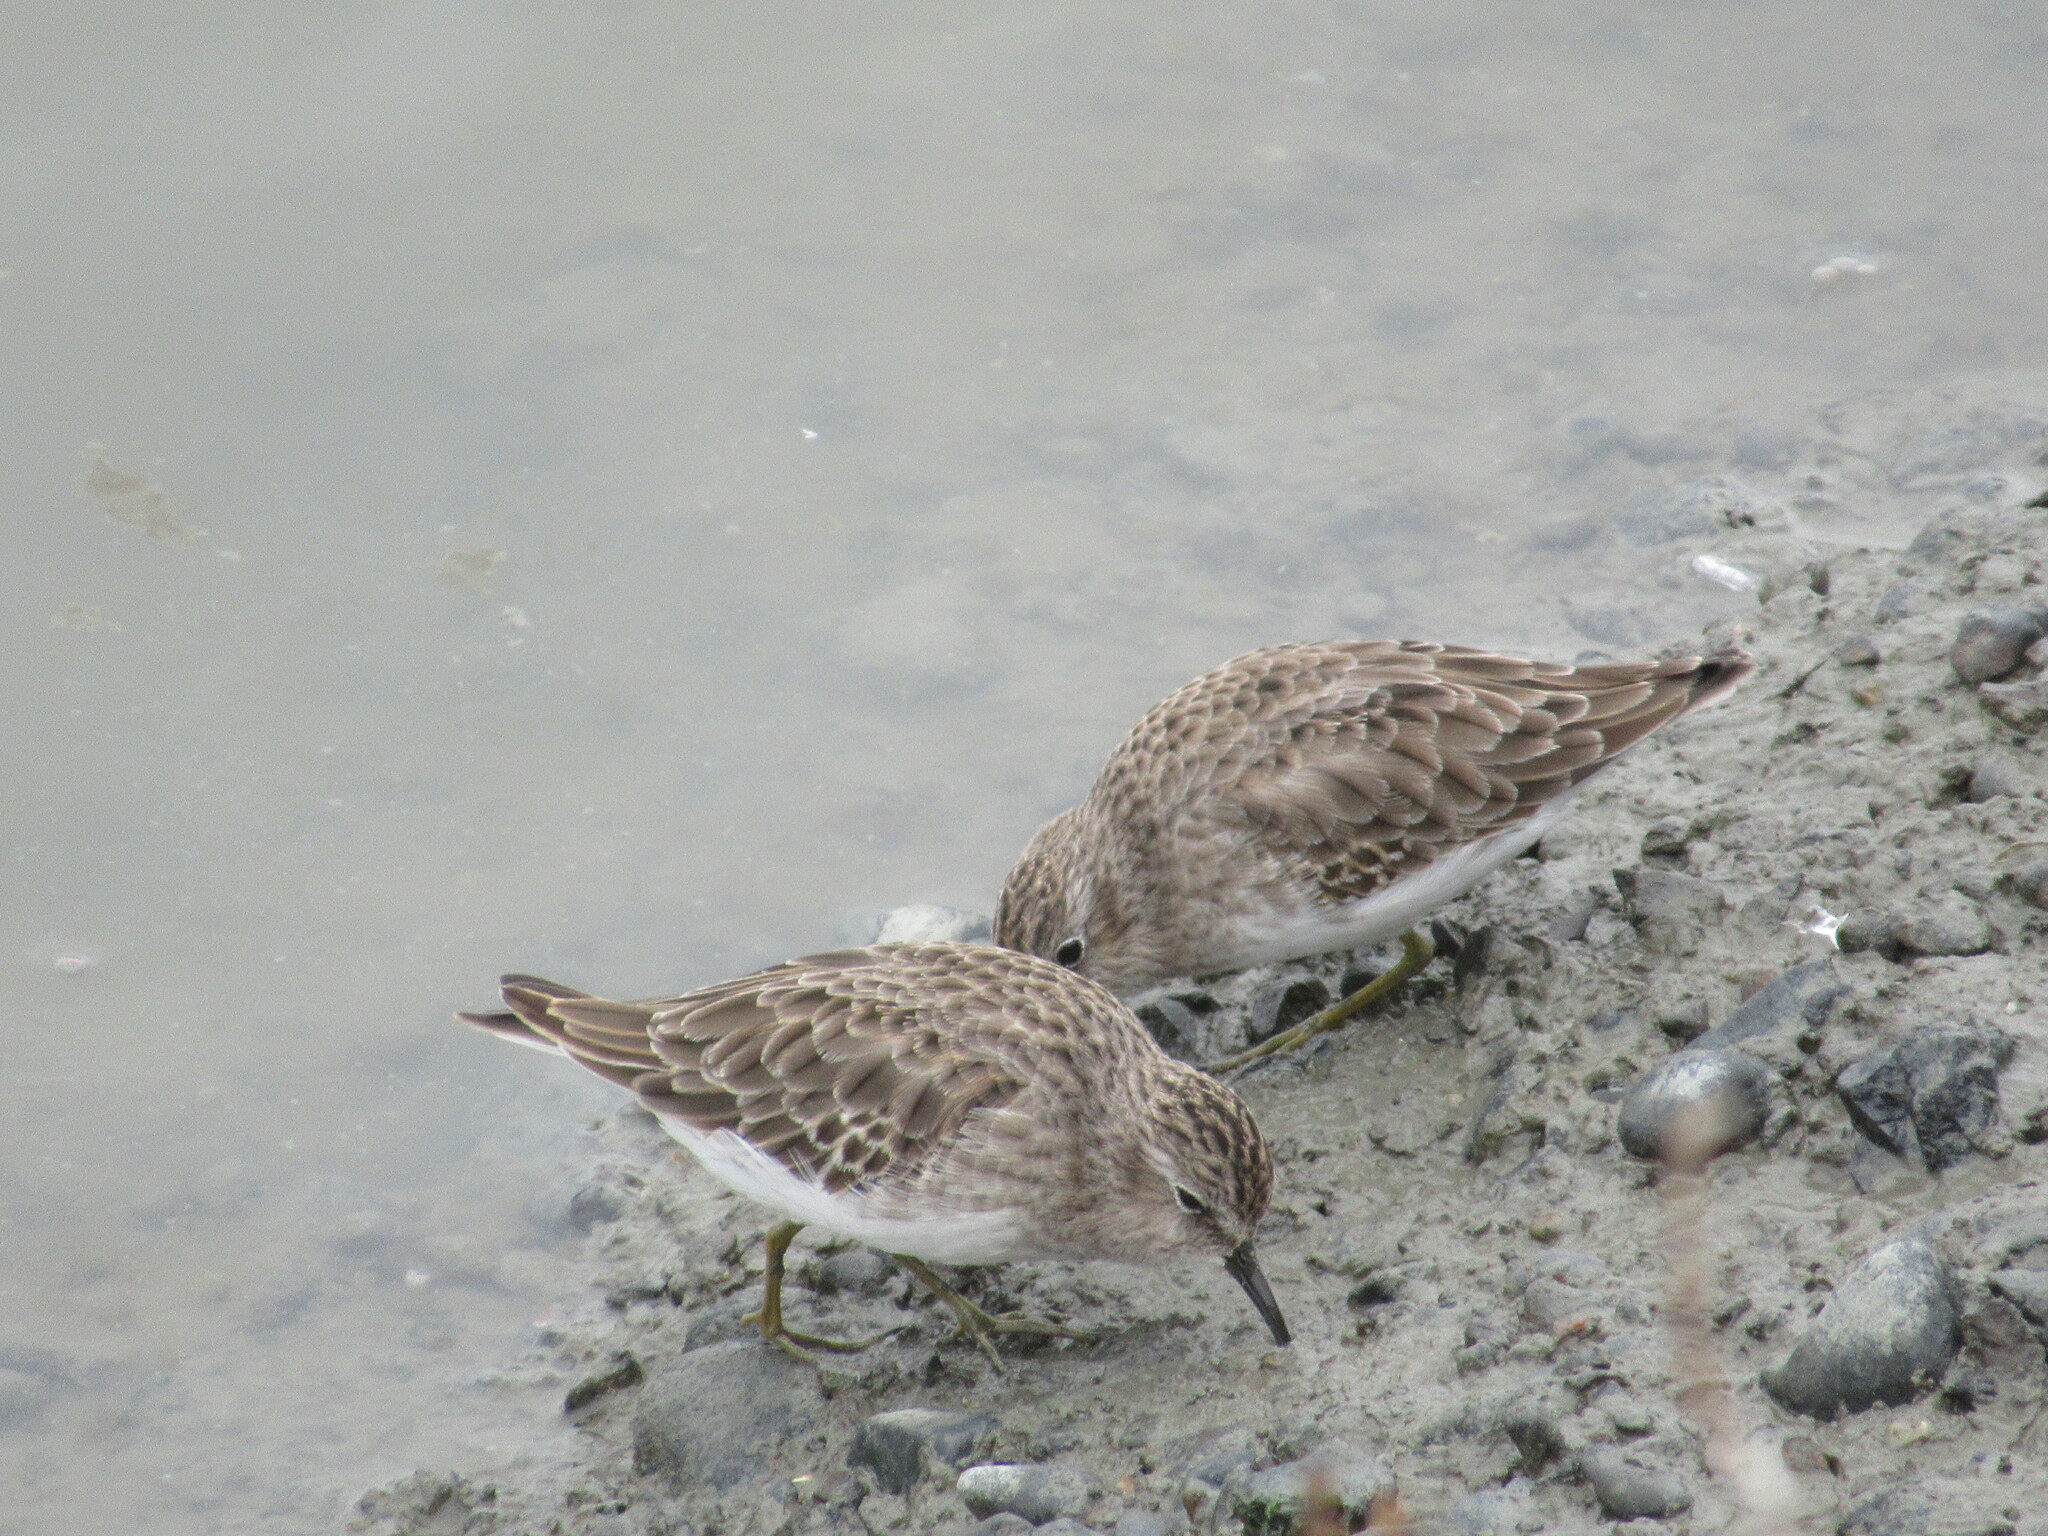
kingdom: Animalia
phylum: Chordata
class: Aves
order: Charadriiformes
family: Scolopacidae
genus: Calidris
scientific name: Calidris minutilla
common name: Least sandpiper
